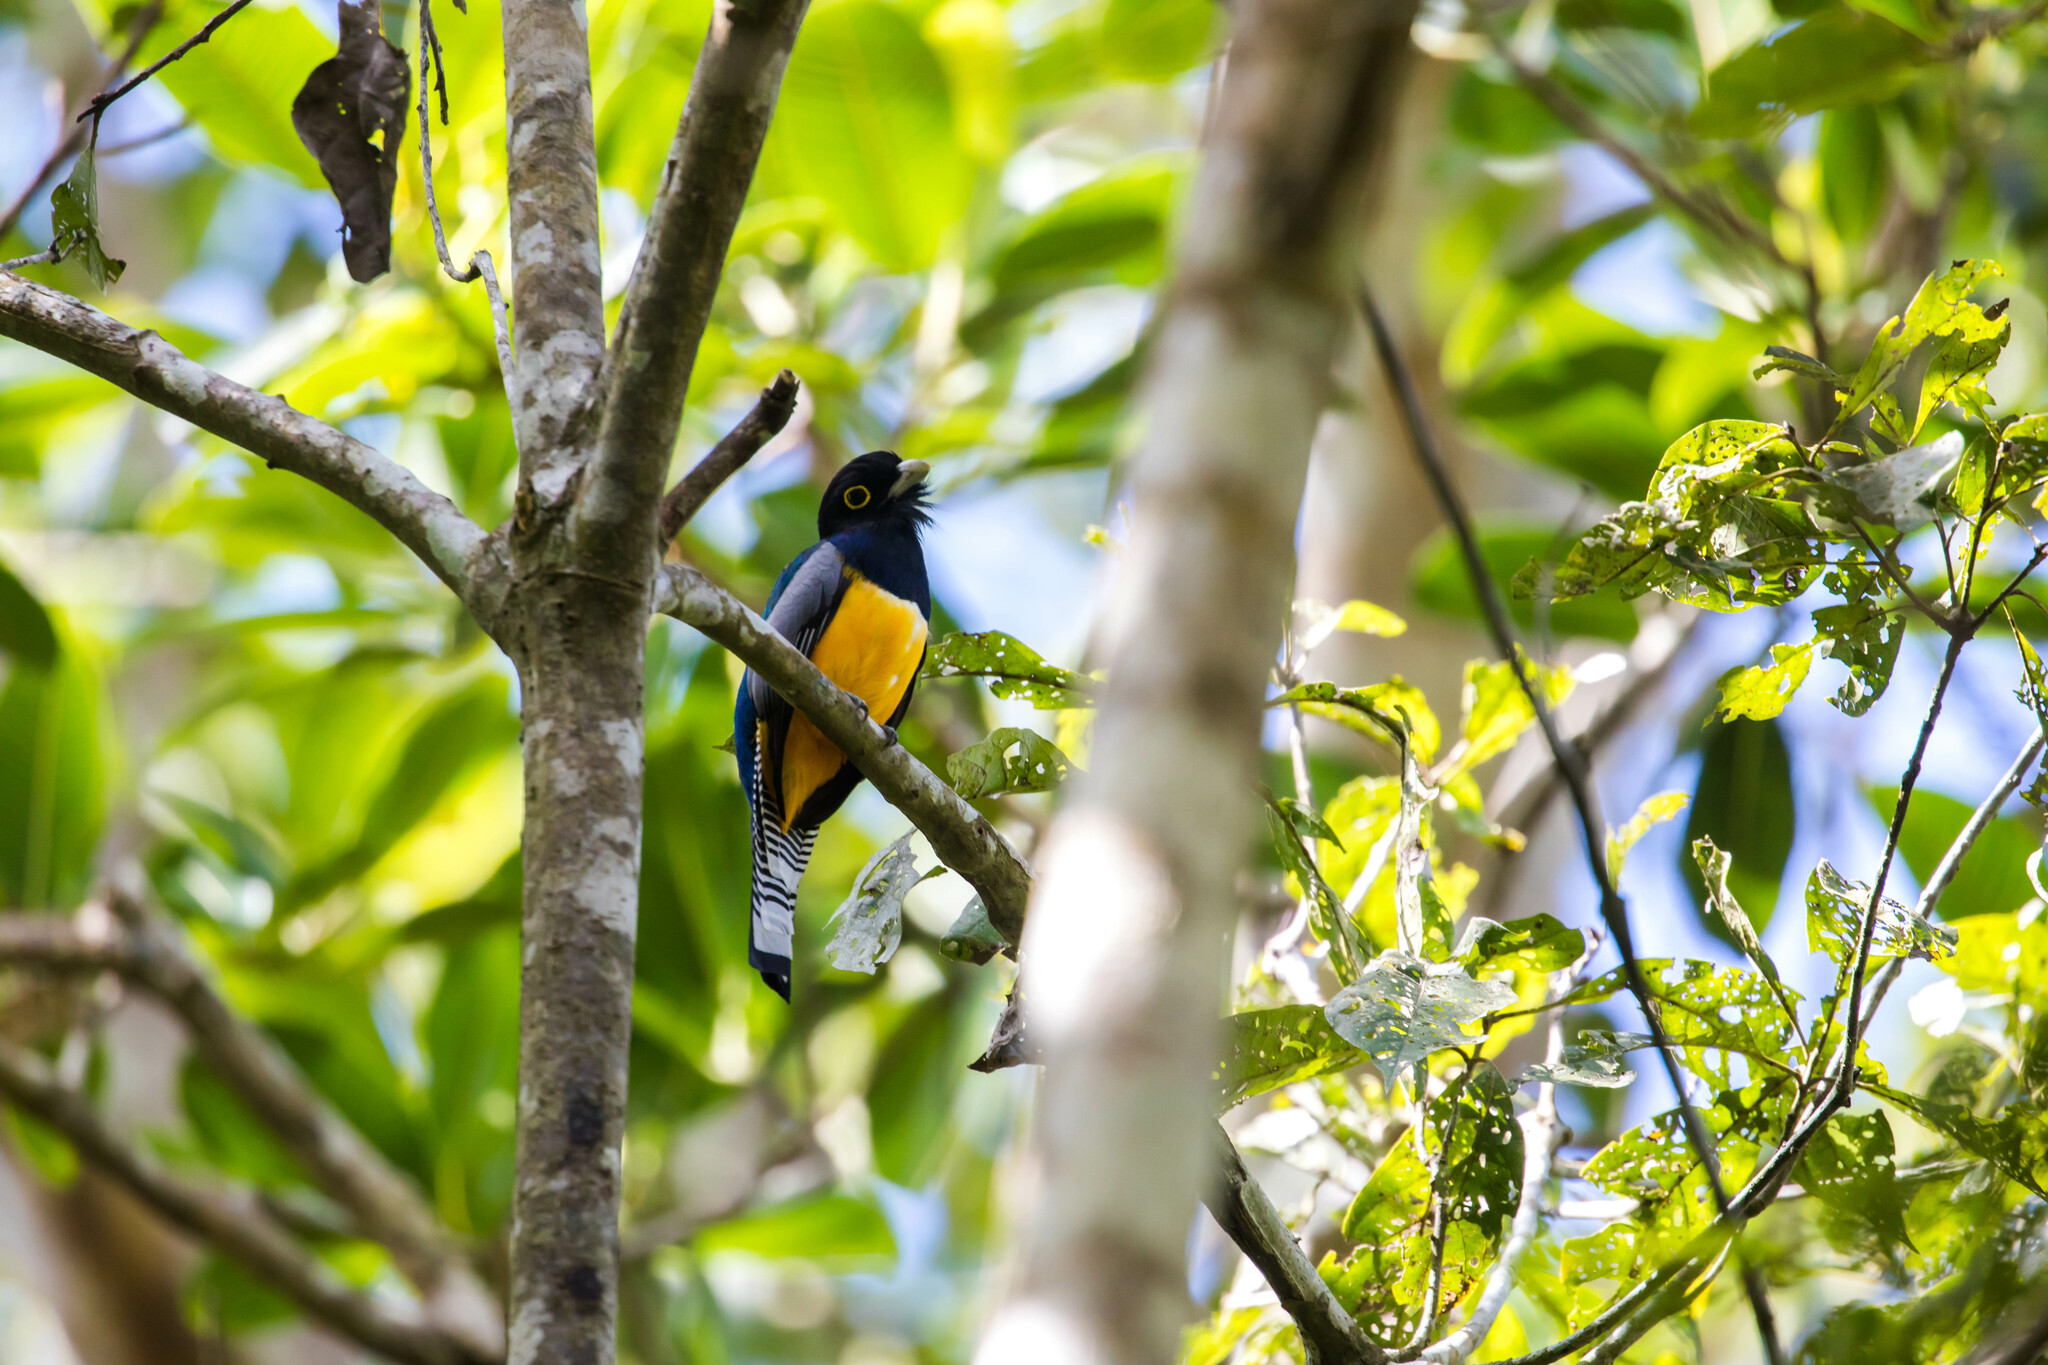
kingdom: Animalia
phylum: Chordata
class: Aves
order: Trogoniformes
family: Trogonidae
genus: Trogon
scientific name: Trogon caligatus
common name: Gartered trogon
